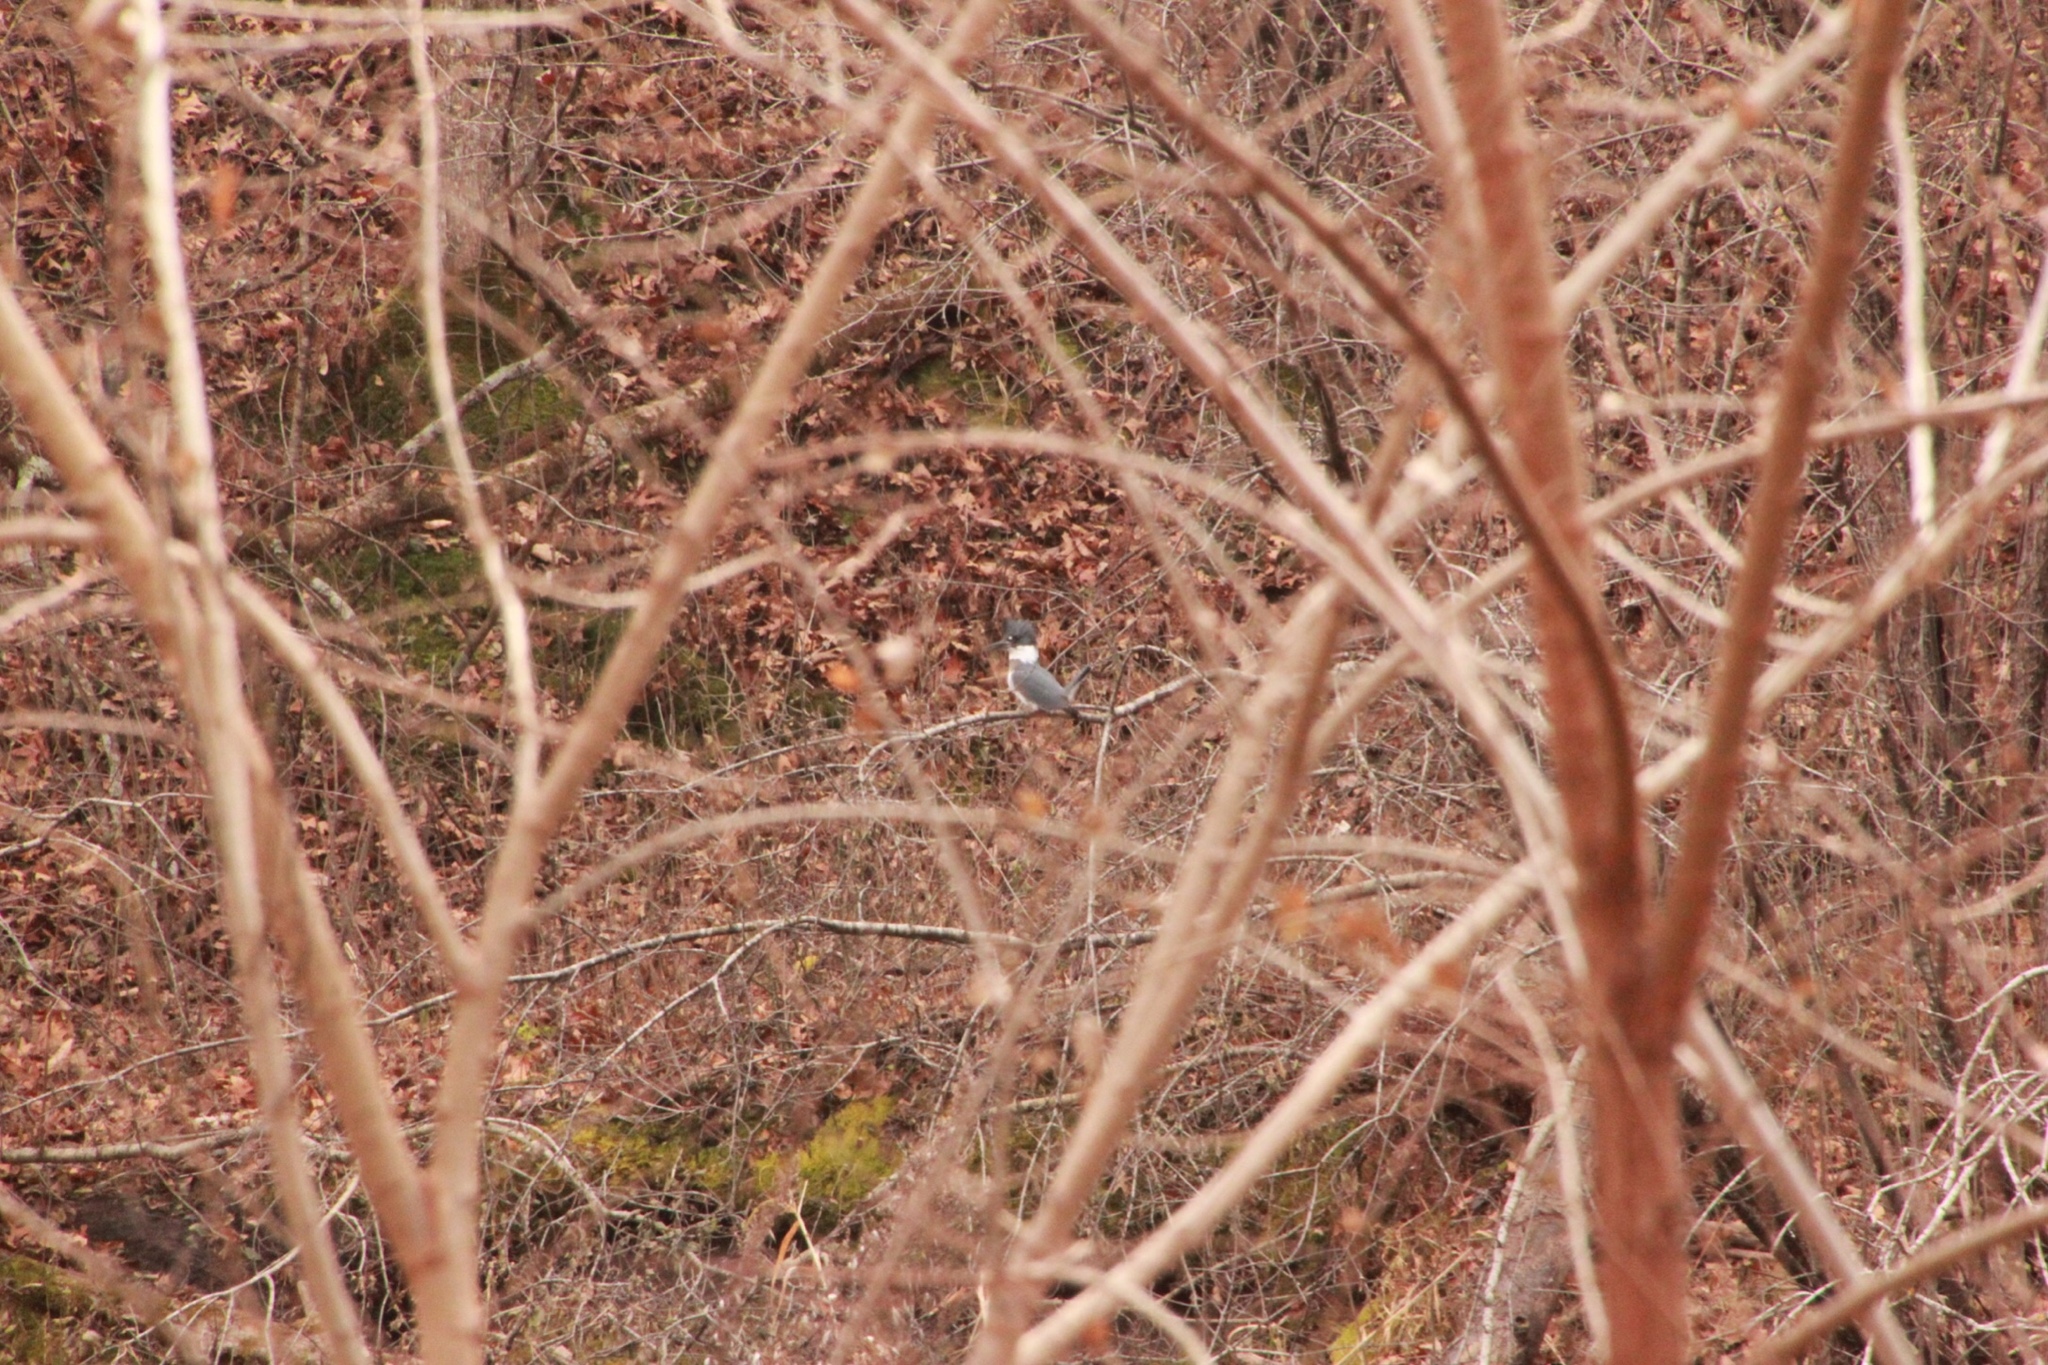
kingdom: Animalia
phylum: Chordata
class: Aves
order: Coraciiformes
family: Alcedinidae
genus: Megaceryle
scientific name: Megaceryle alcyon
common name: Belted kingfisher
